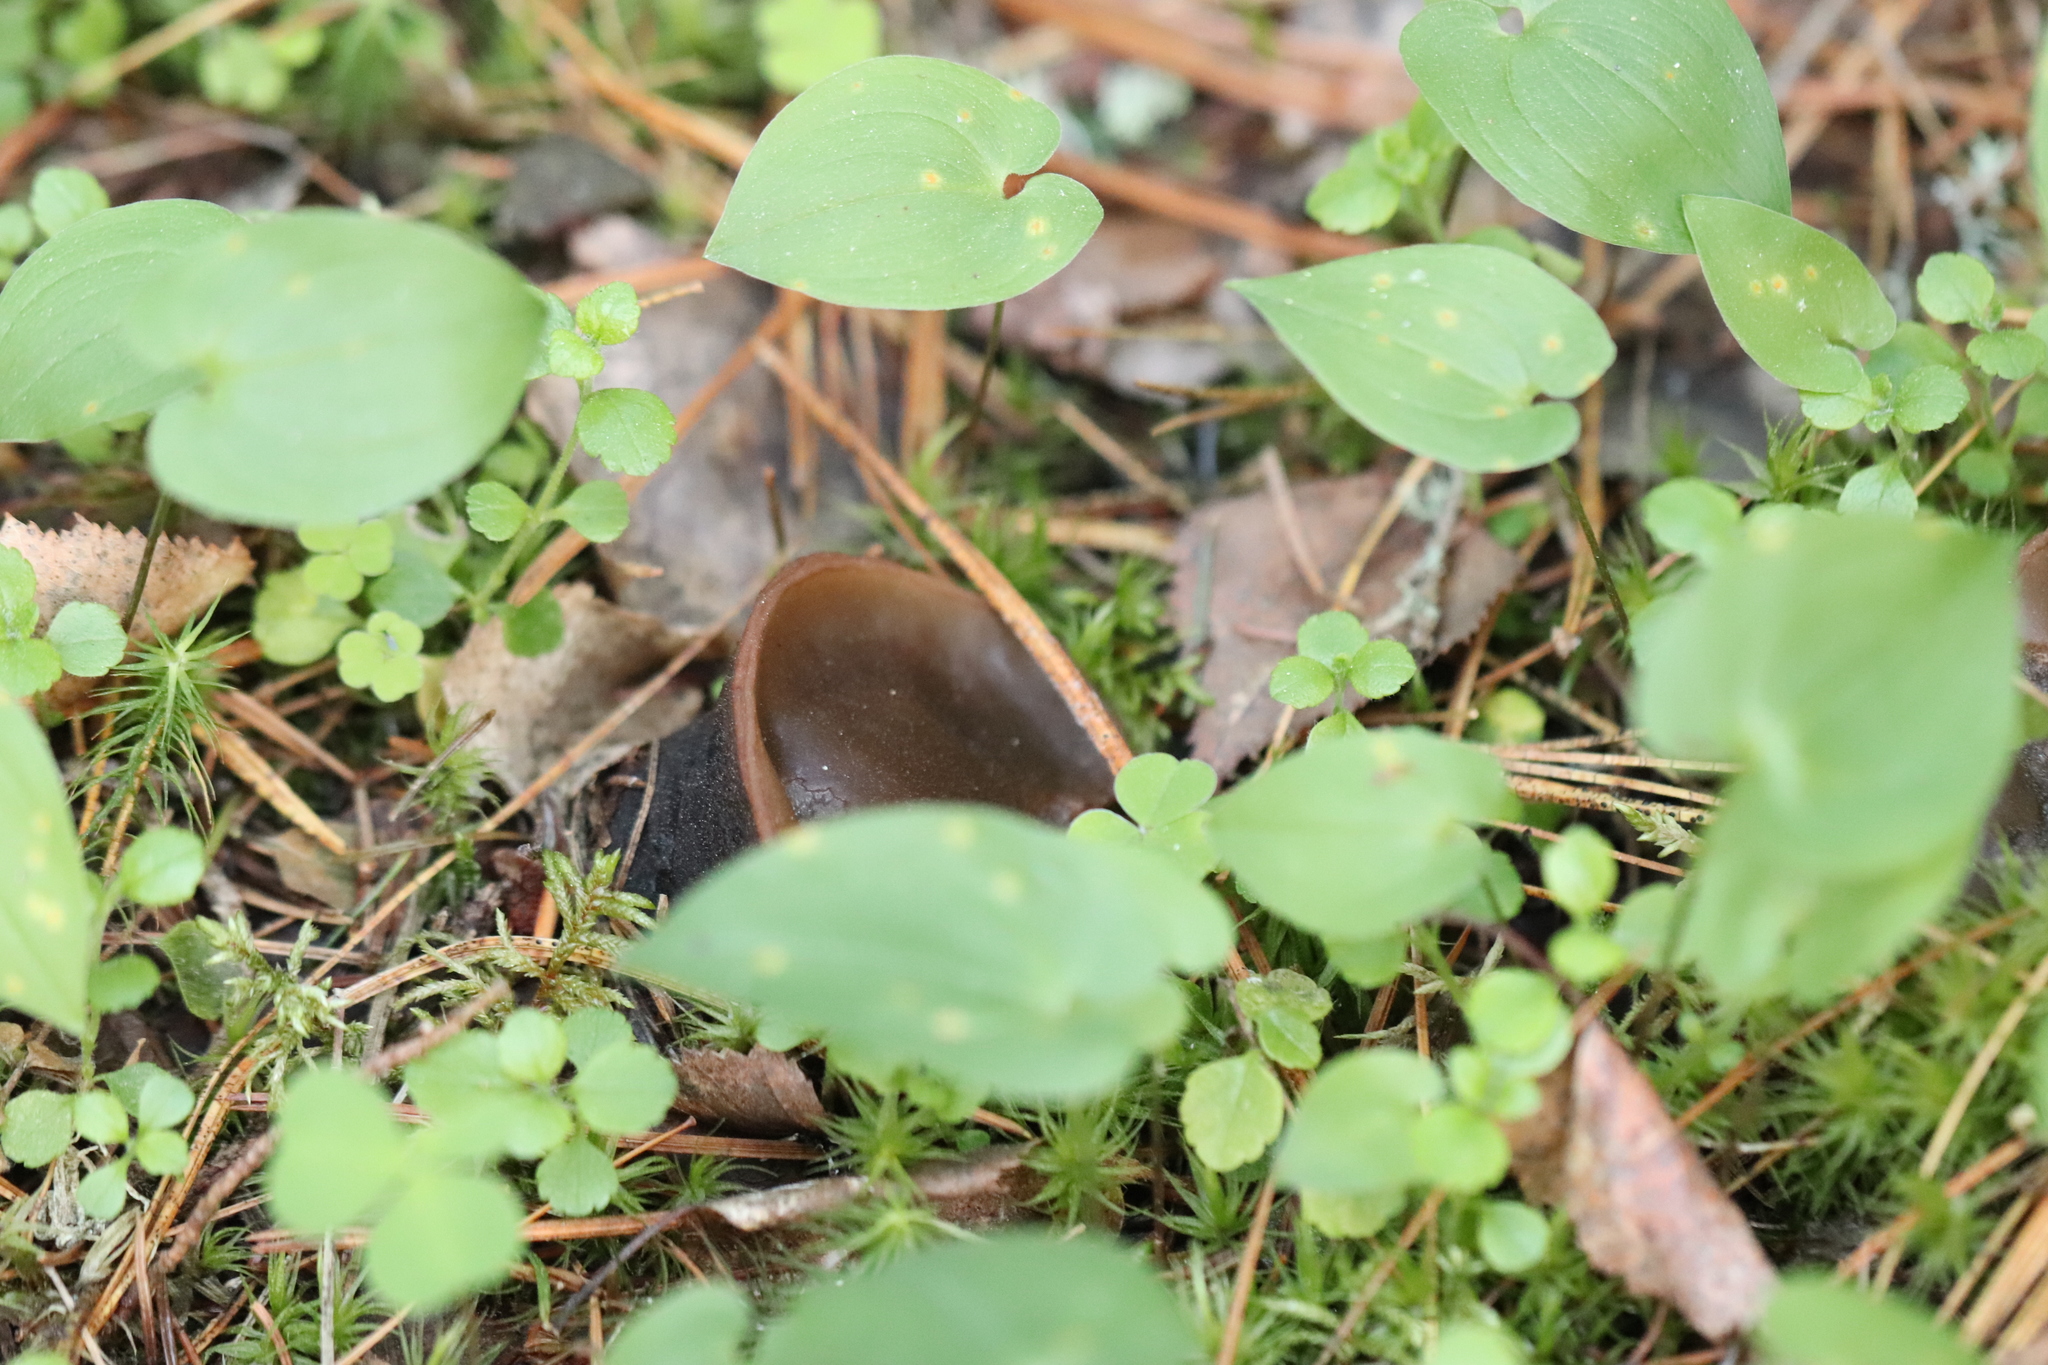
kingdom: Fungi
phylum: Ascomycota
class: Pezizomycetes
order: Pezizales
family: Sarcosomataceae
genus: Sarcosoma
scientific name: Sarcosoma globosum
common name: Charred-pancake cup
